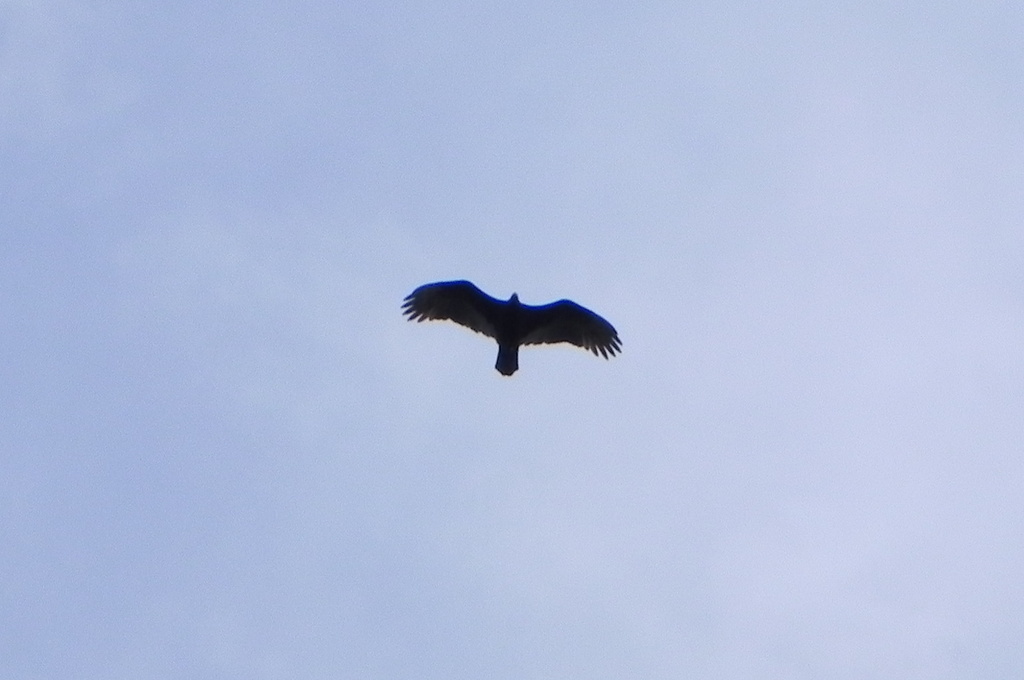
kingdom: Animalia
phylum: Chordata
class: Aves
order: Accipitriformes
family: Cathartidae
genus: Cathartes
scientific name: Cathartes aura
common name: Turkey vulture
